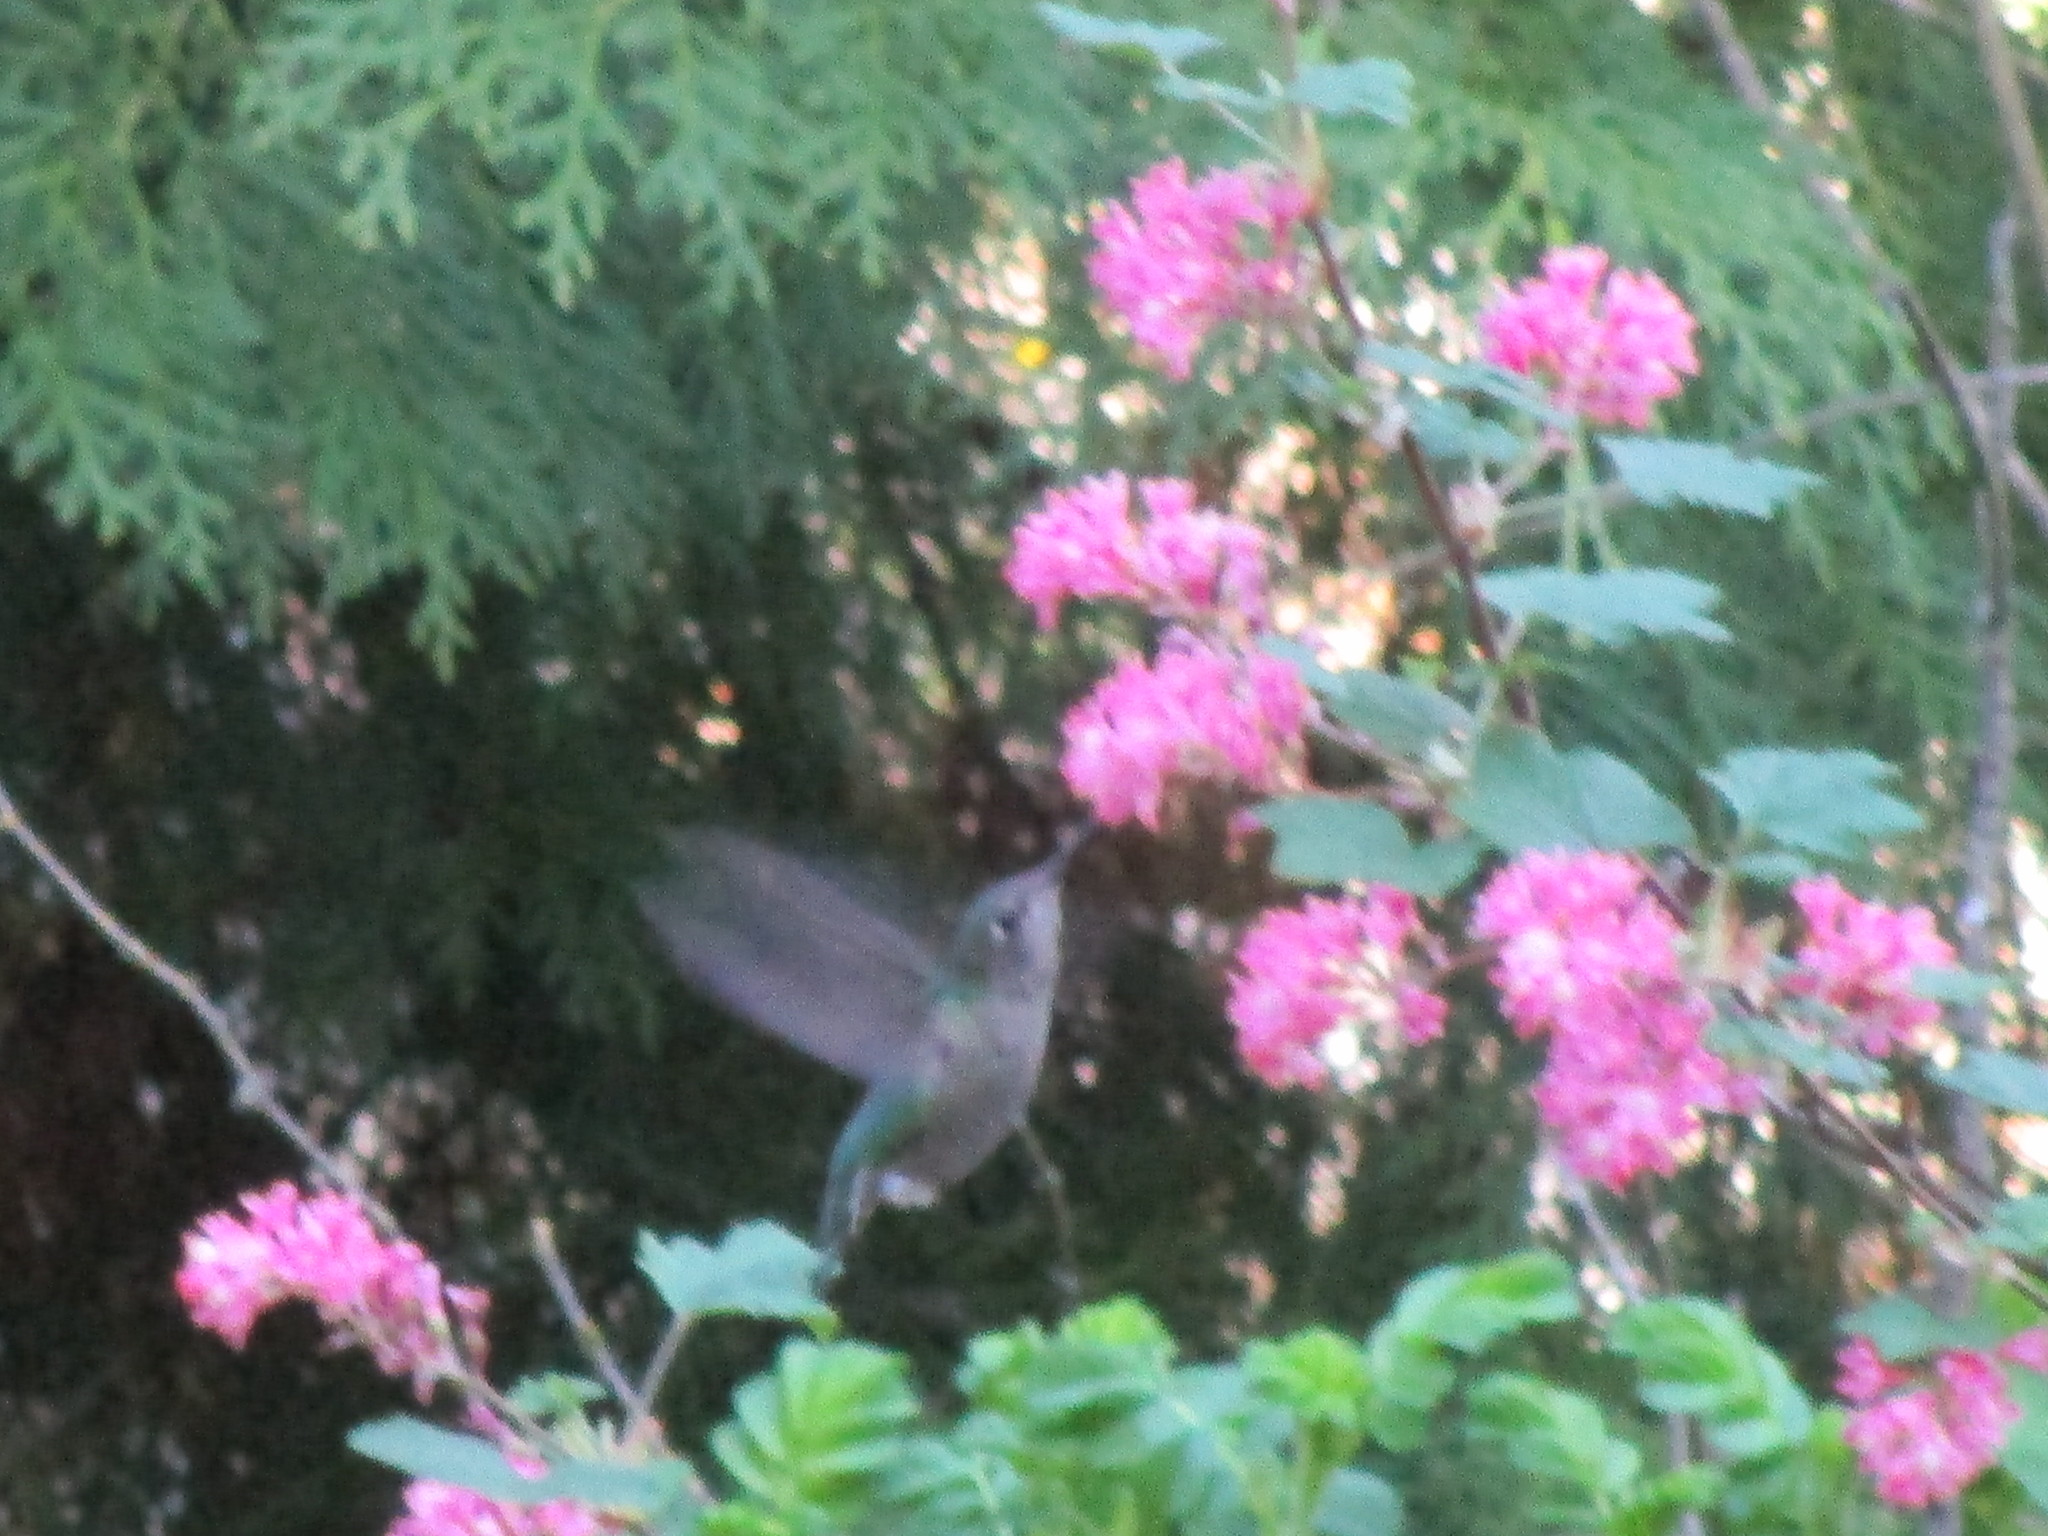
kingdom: Animalia
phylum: Chordata
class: Aves
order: Apodiformes
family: Trochilidae
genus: Calypte
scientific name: Calypte anna
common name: Anna's hummingbird
